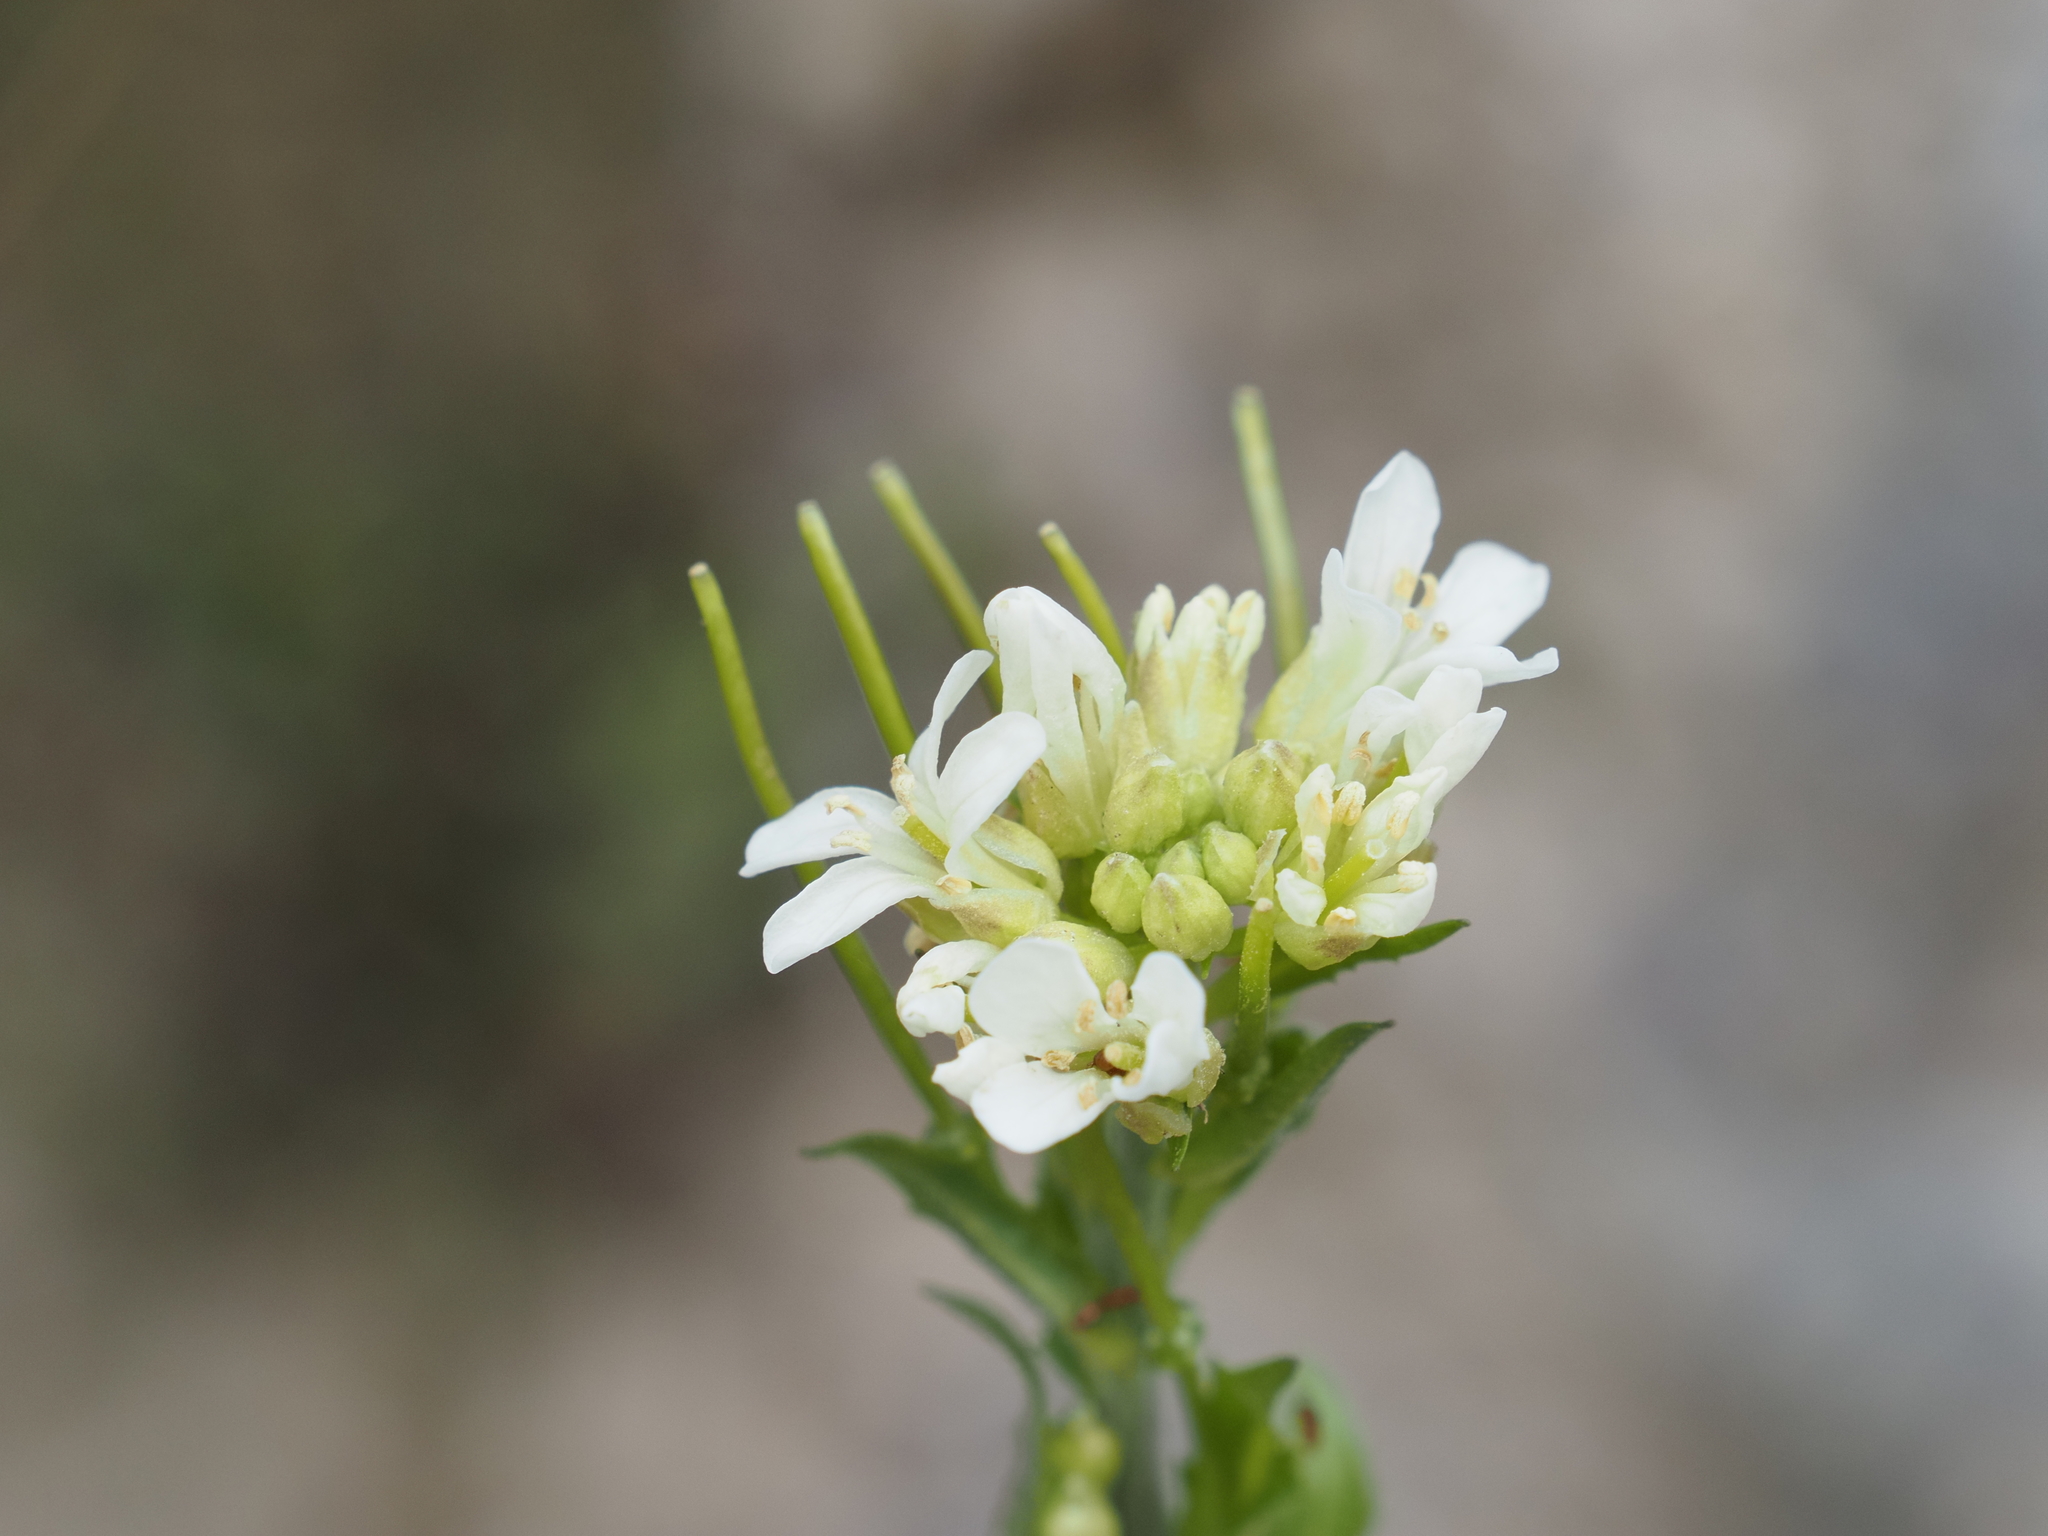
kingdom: Plantae
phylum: Tracheophyta
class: Magnoliopsida
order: Brassicales
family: Brassicaceae
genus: Arabis
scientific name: Arabis hirsuta
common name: Hairy rock-cress
